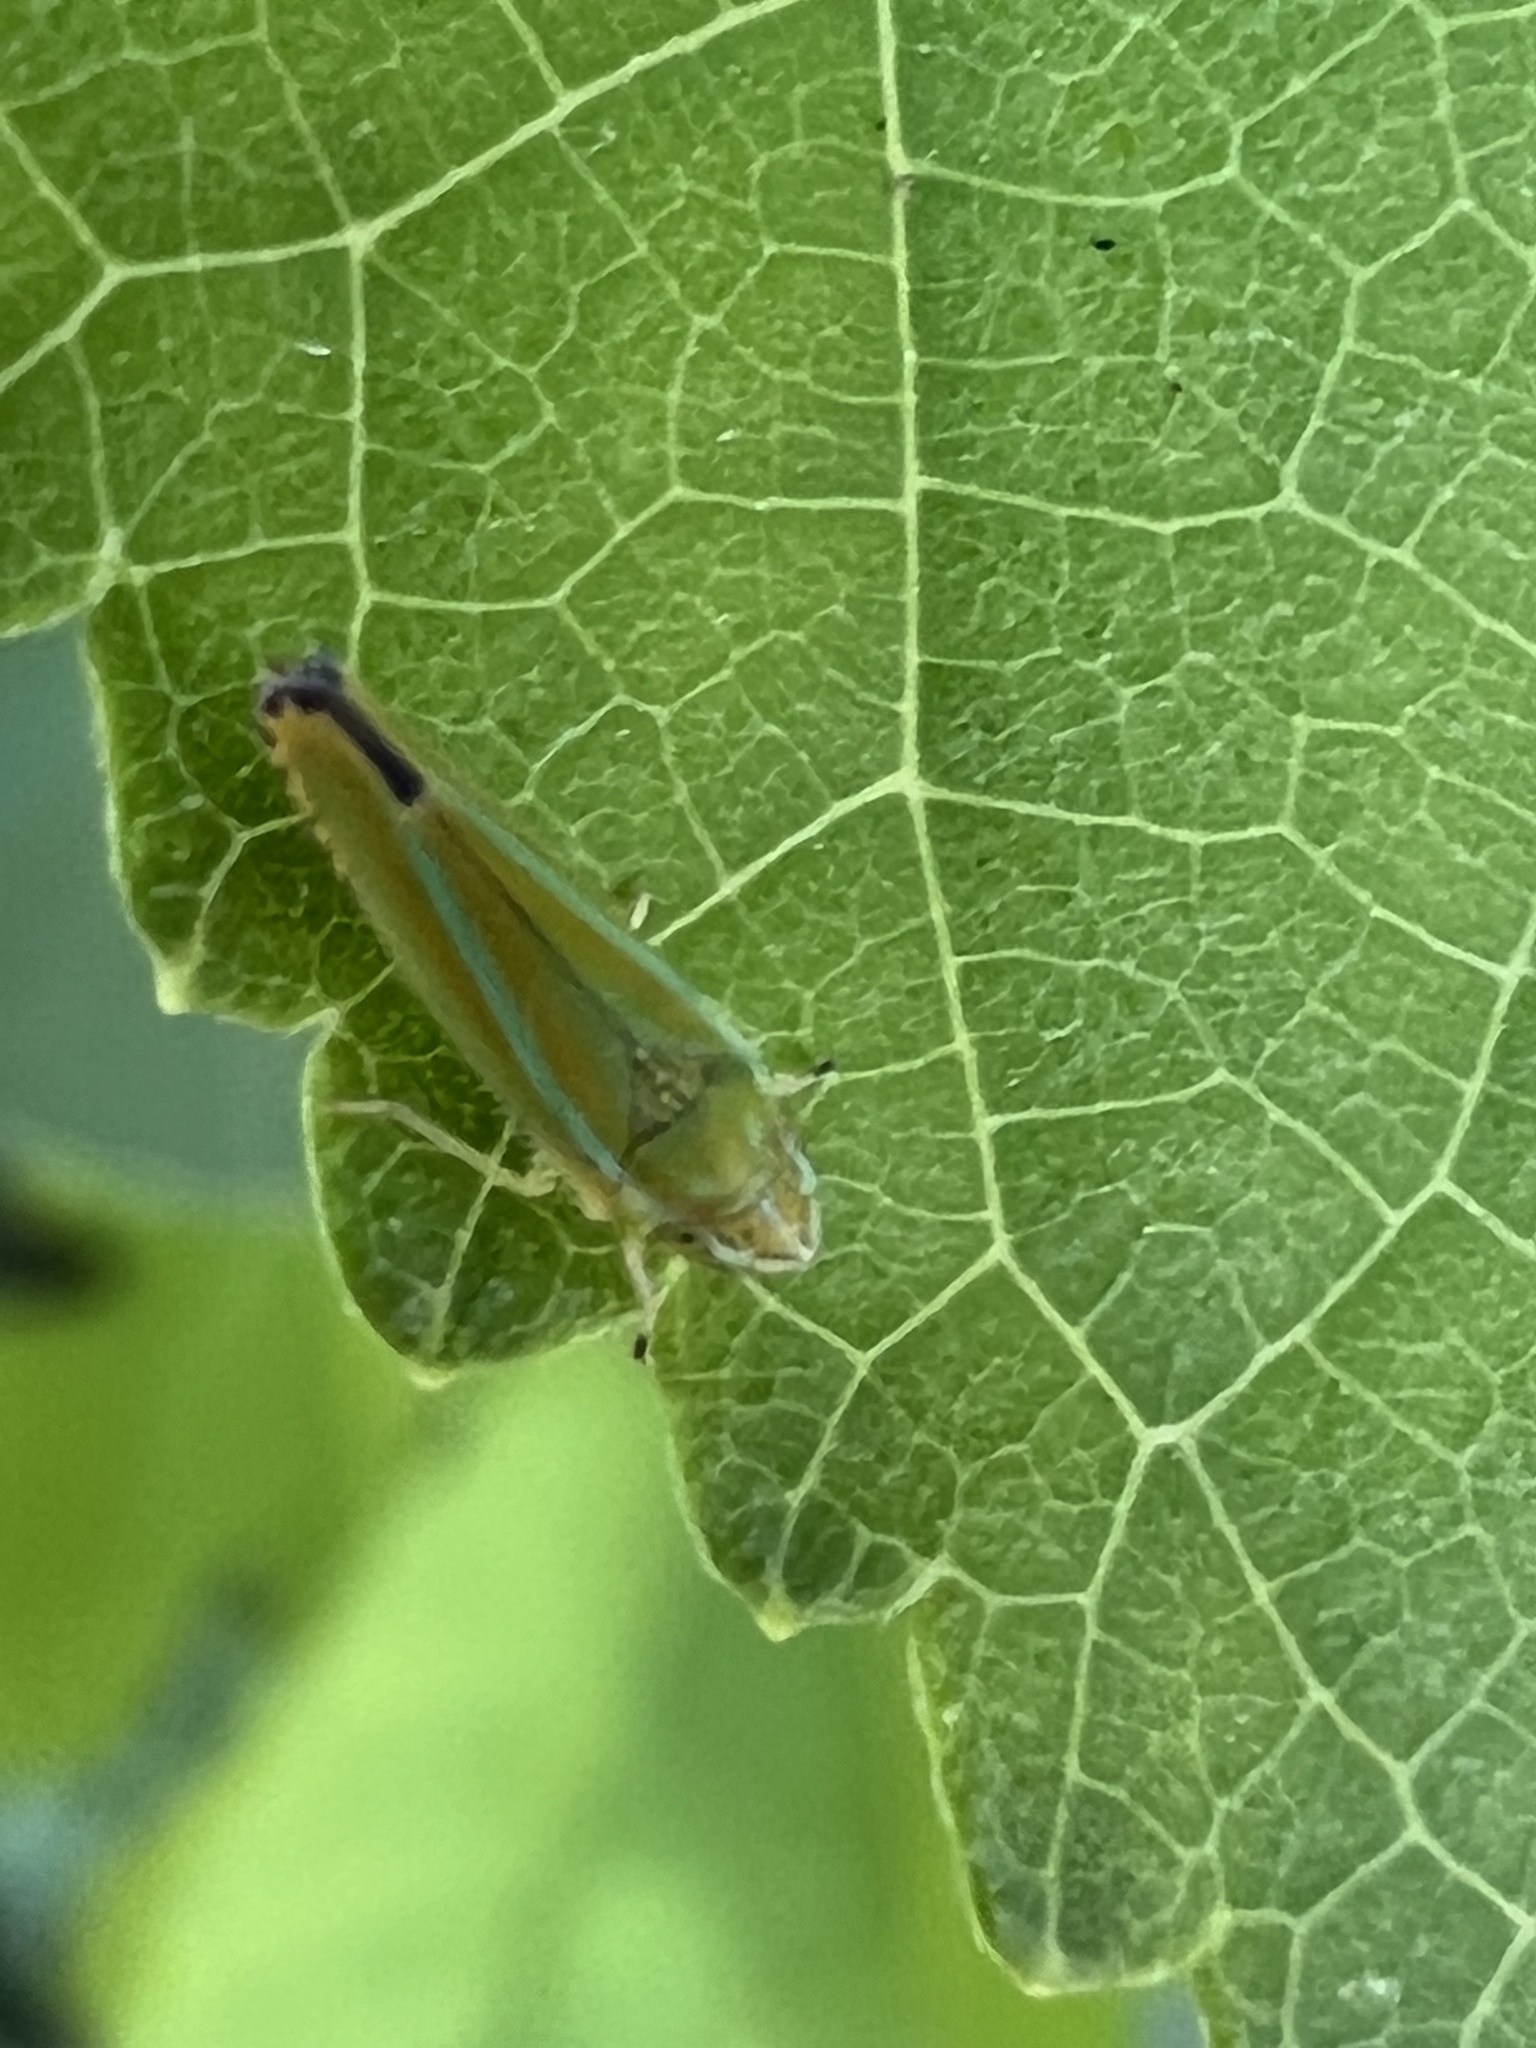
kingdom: Animalia
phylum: Arthropoda
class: Insecta
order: Hemiptera
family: Cicadellidae
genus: Graphocephala
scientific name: Graphocephala versuta
